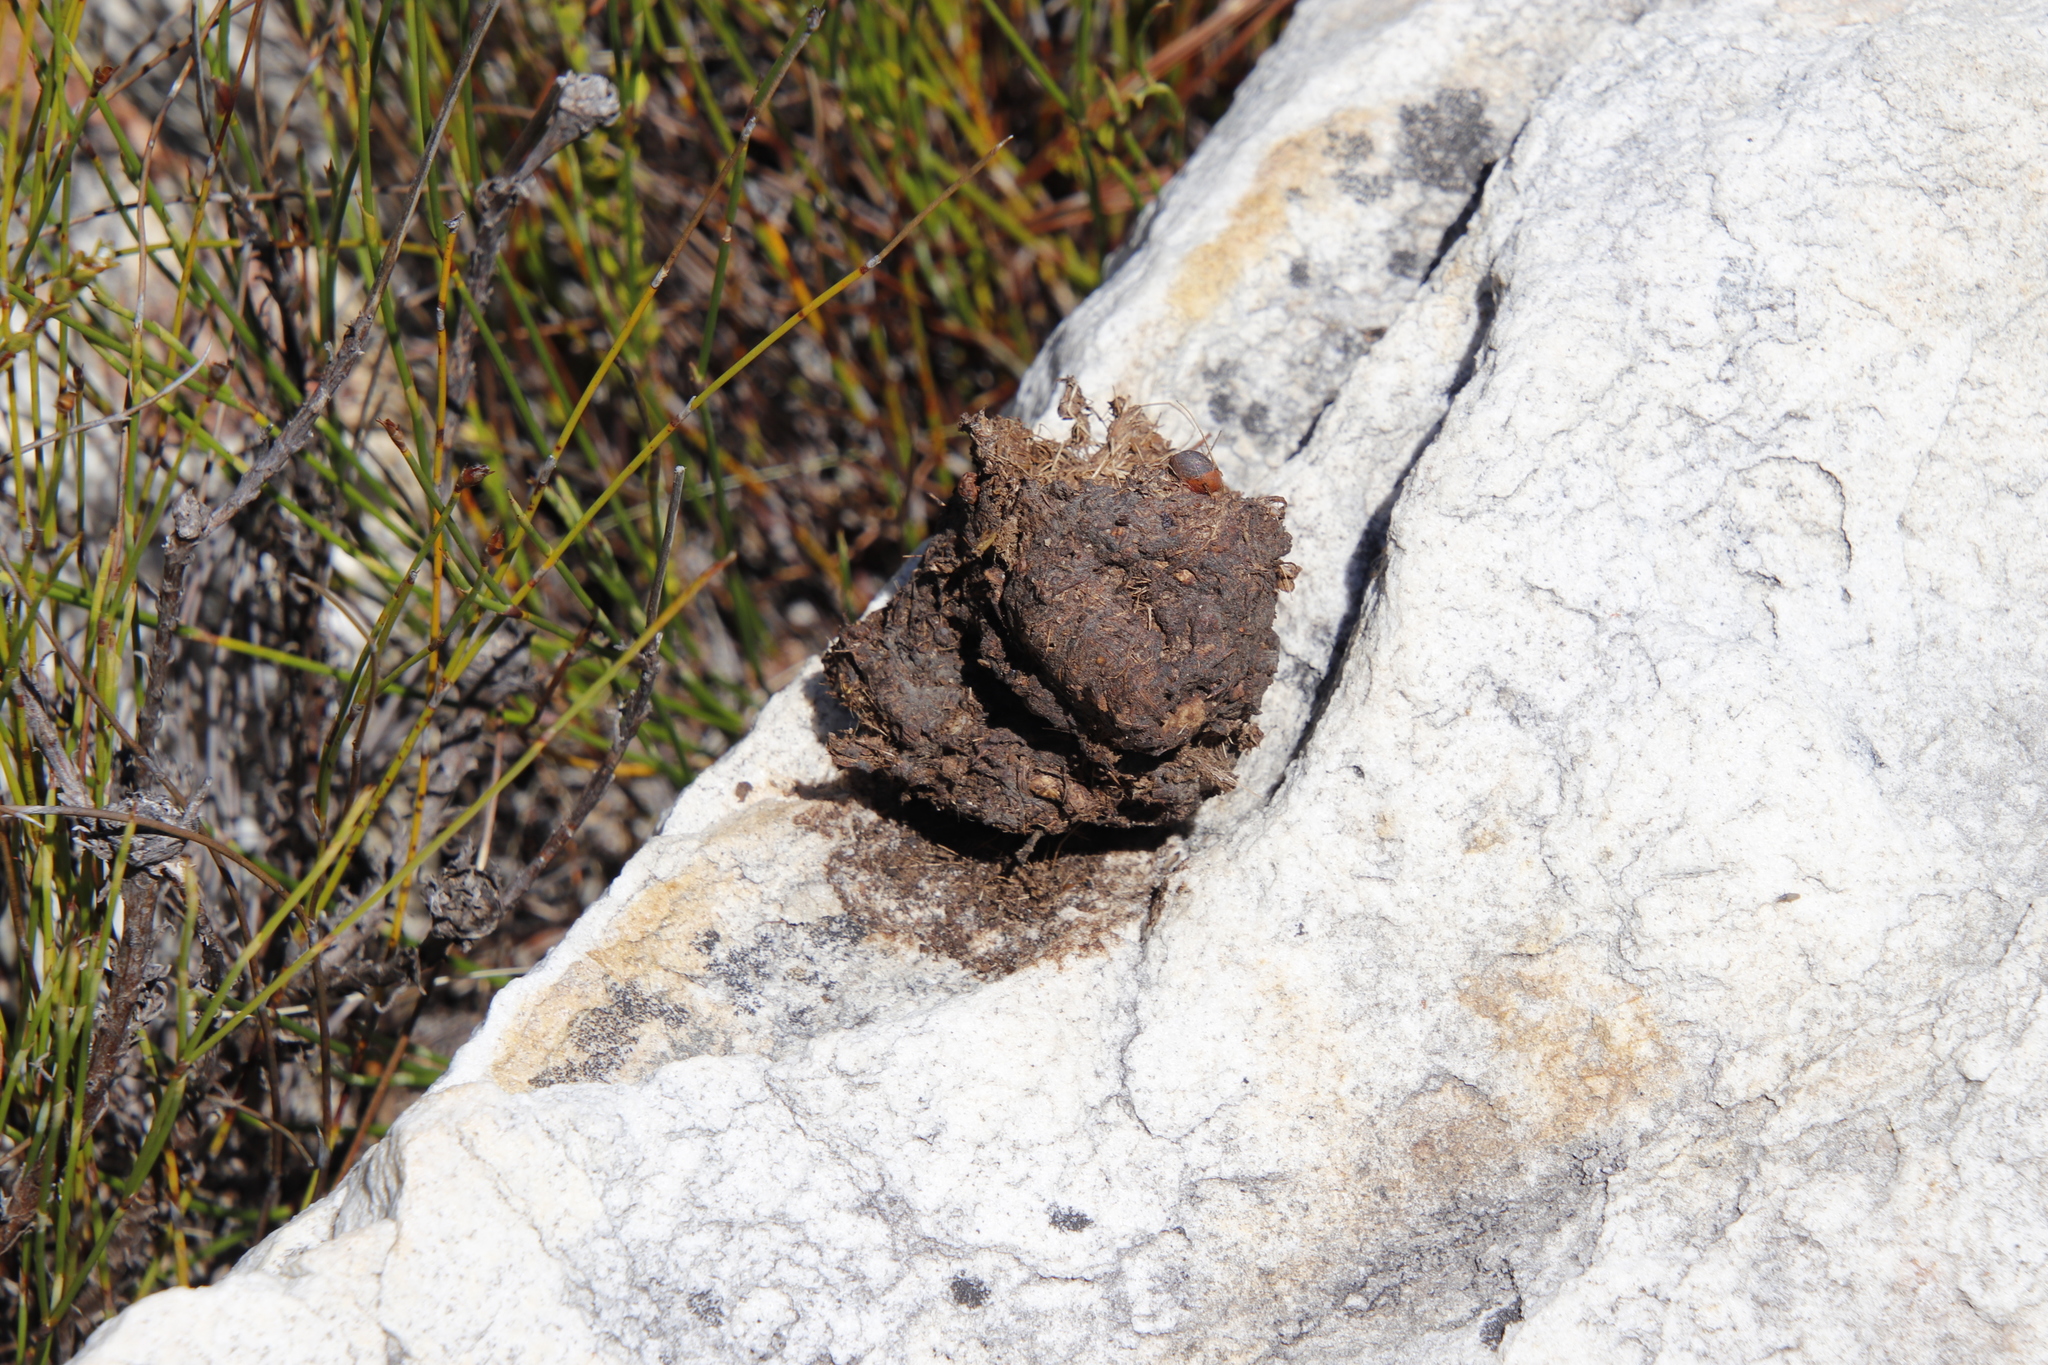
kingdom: Animalia
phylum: Chordata
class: Mammalia
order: Primates
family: Cercopithecidae
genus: Papio
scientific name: Papio ursinus
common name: Chacma baboon
